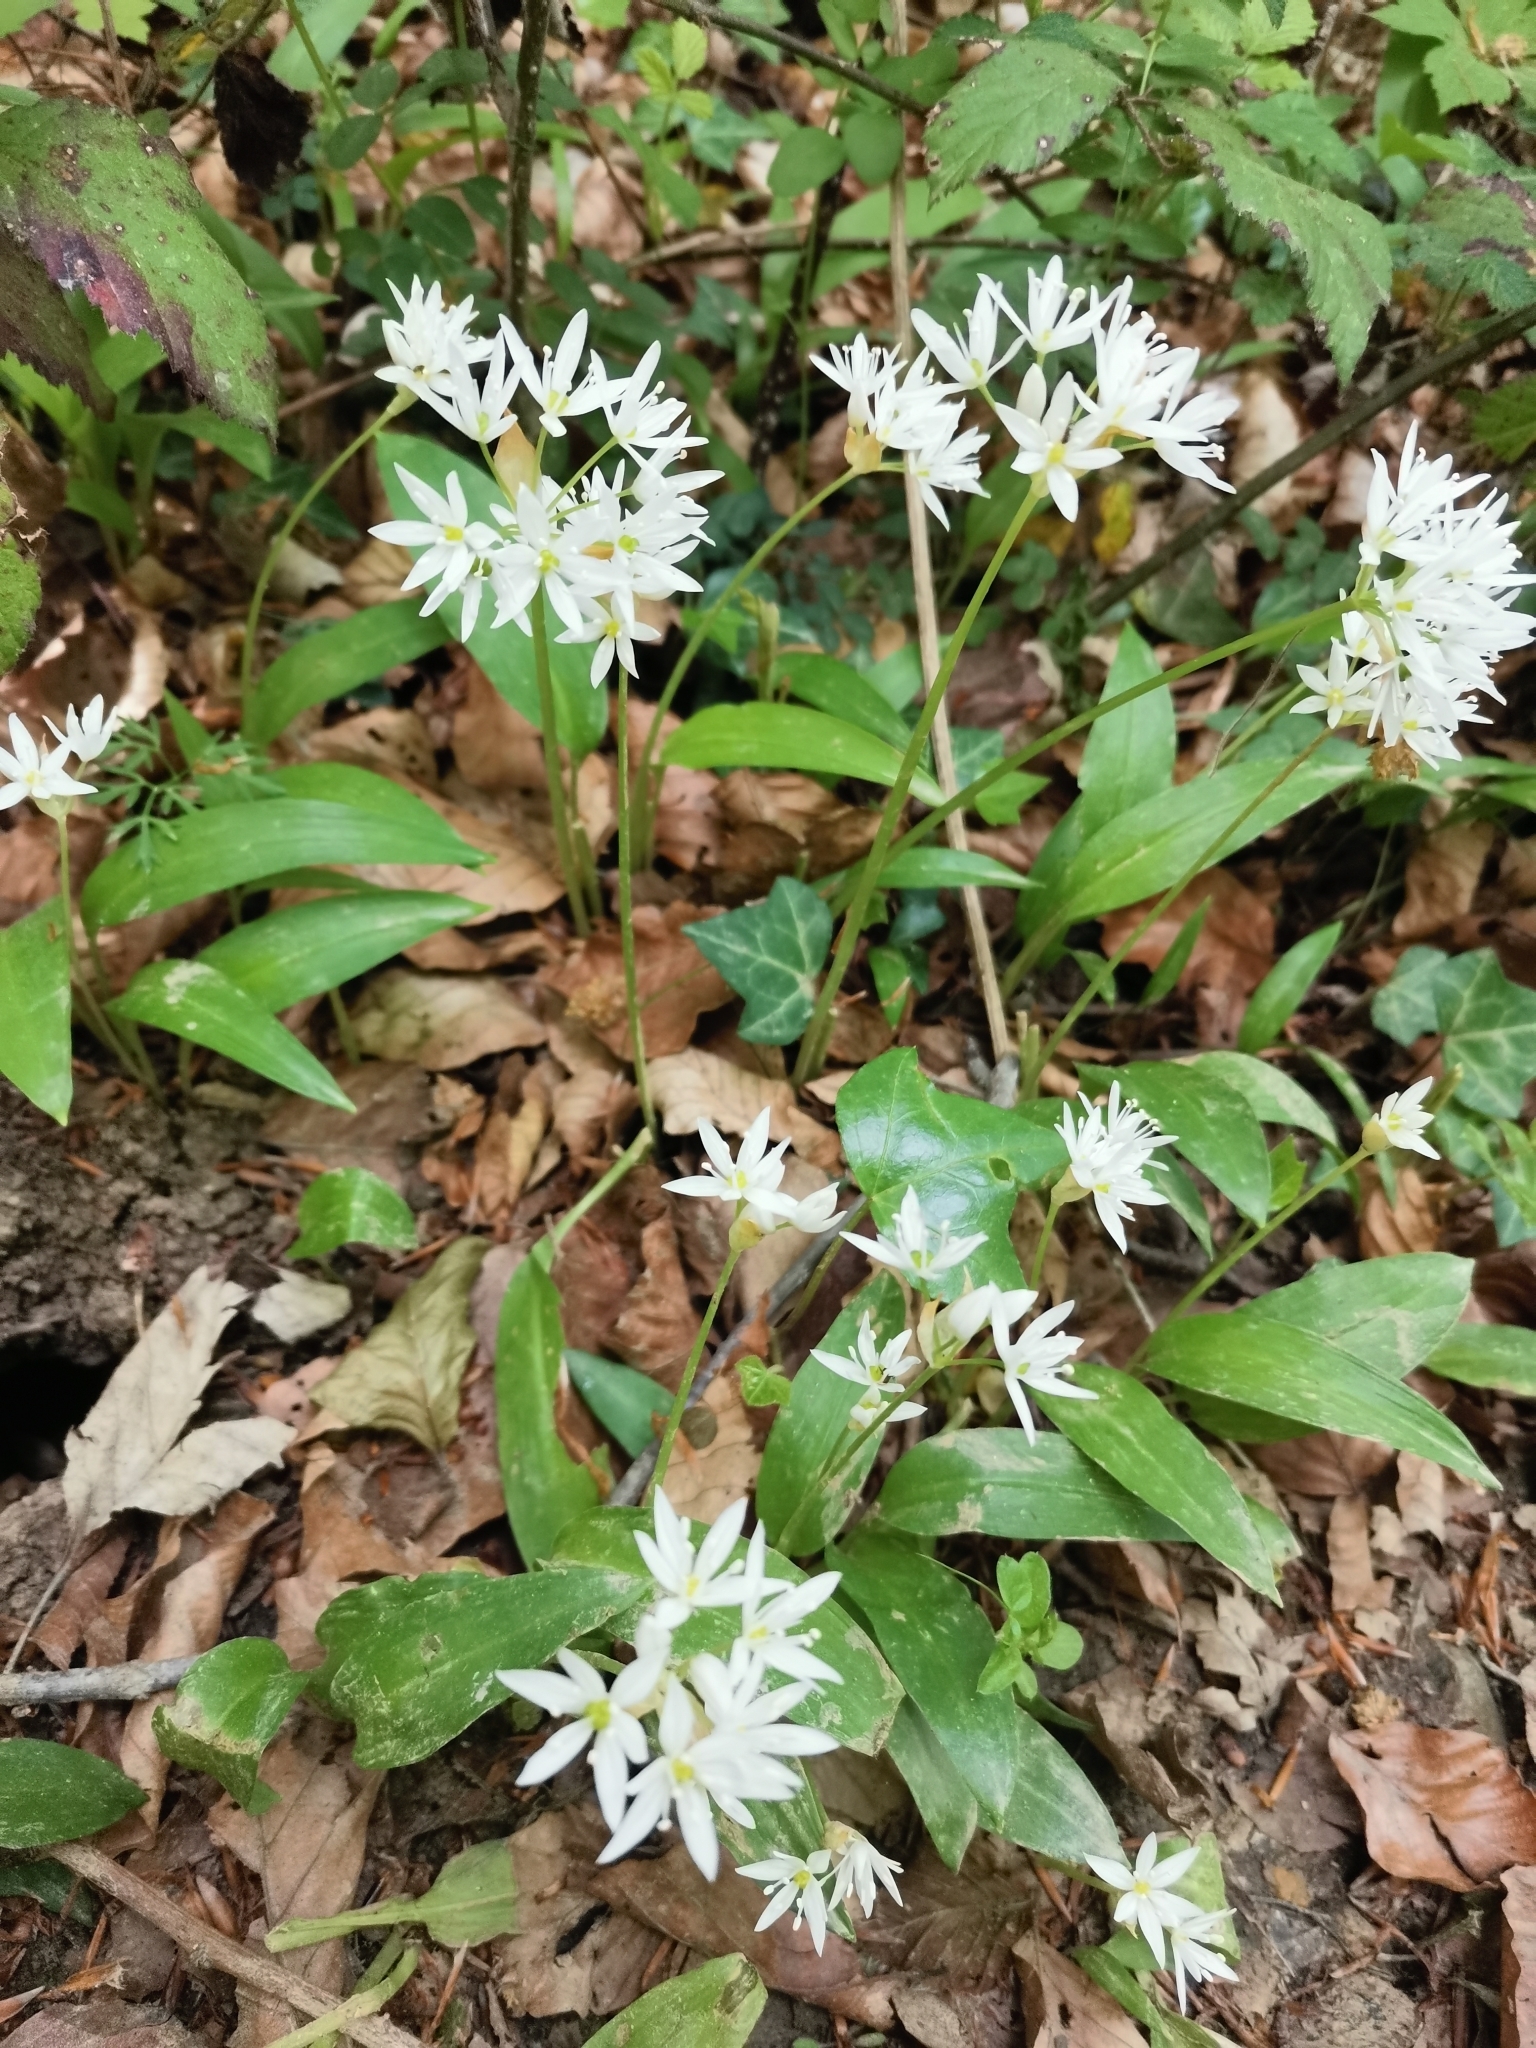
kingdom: Plantae
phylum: Tracheophyta
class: Liliopsida
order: Asparagales
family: Amaryllidaceae
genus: Allium
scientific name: Allium ursinum
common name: Ramsons
